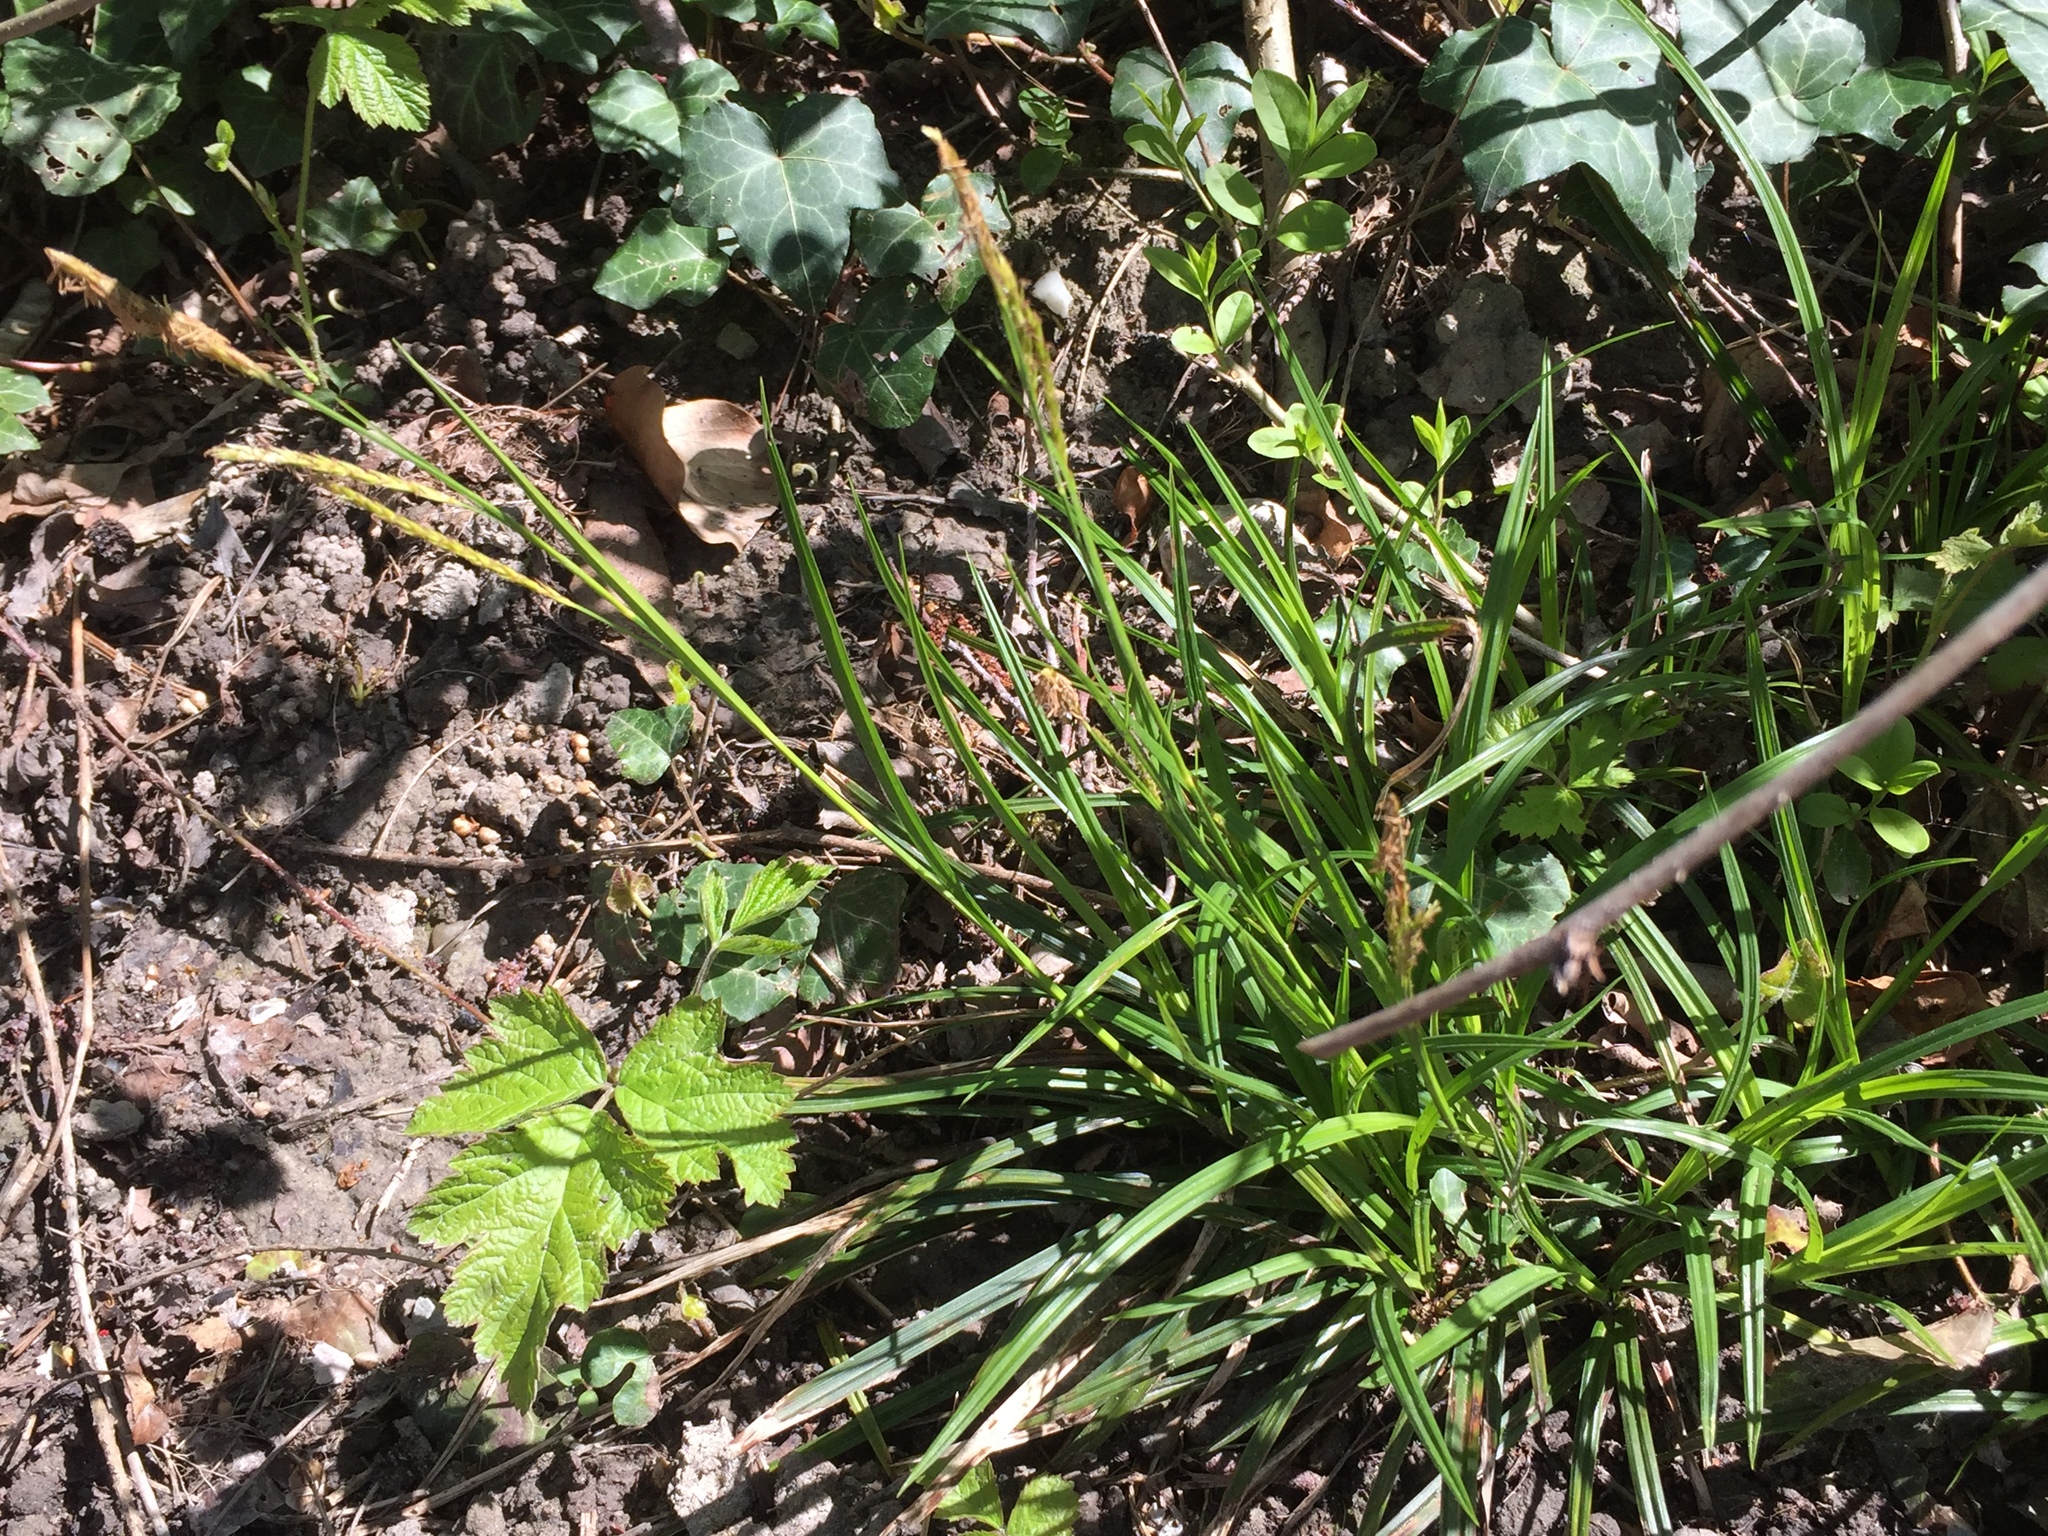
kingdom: Plantae
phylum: Tracheophyta
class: Liliopsida
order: Poales
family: Cyperaceae
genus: Carex
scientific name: Carex sylvatica
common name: Wood-sedge
